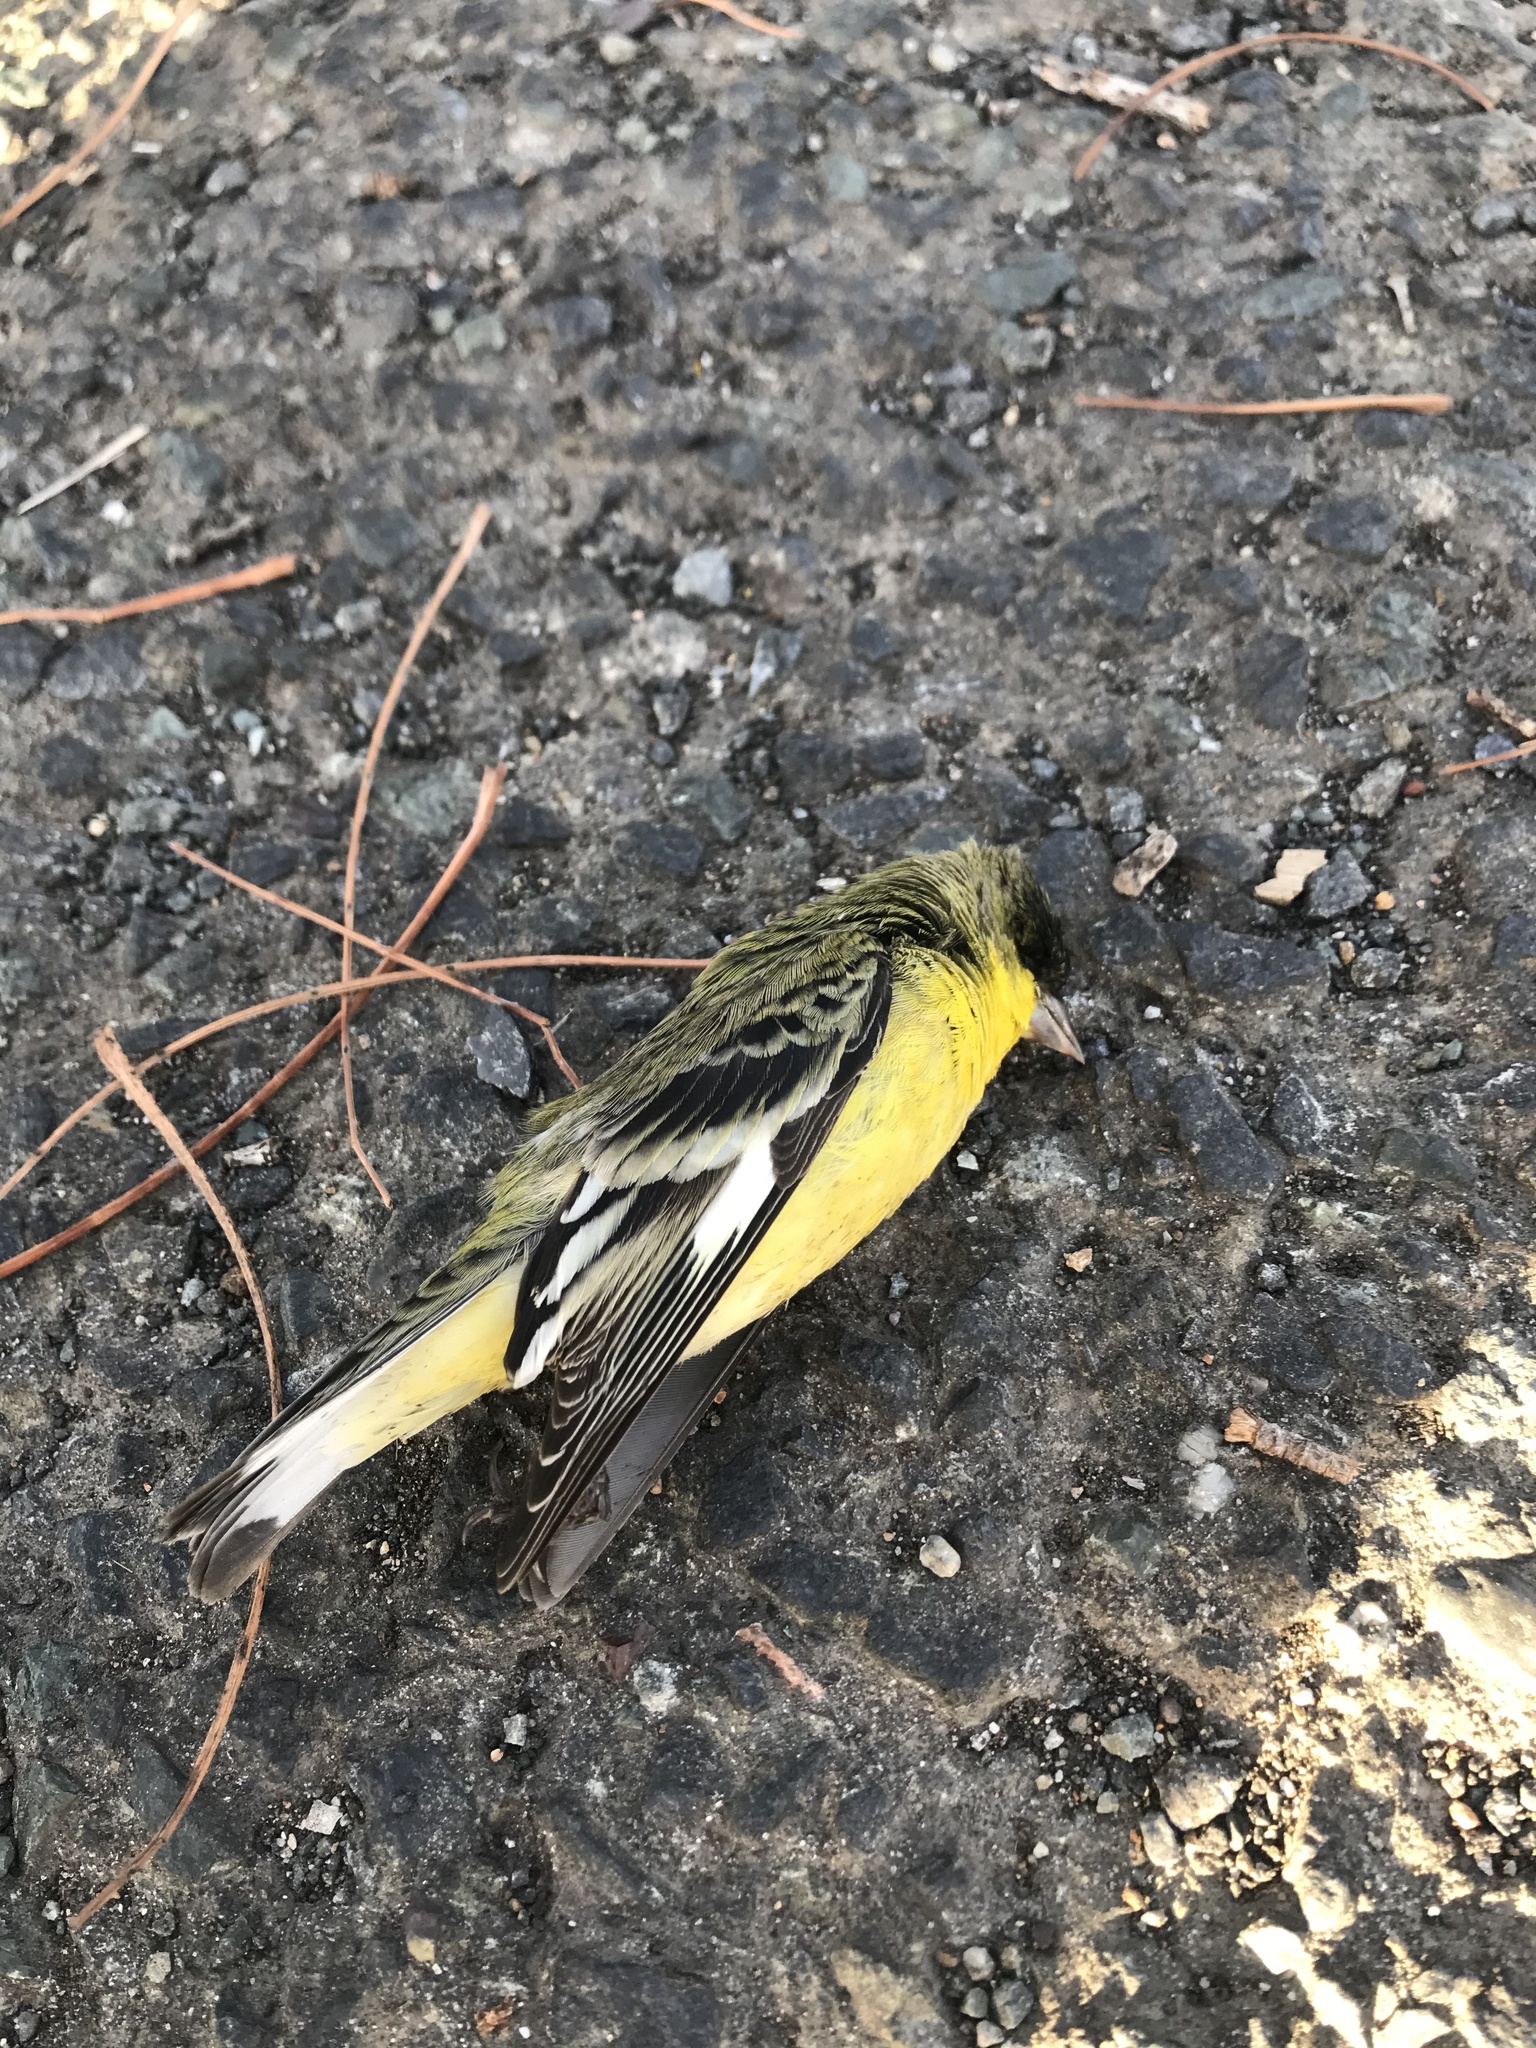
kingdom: Animalia
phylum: Chordata
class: Aves
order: Passeriformes
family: Fringillidae
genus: Spinus
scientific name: Spinus psaltria
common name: Lesser goldfinch
